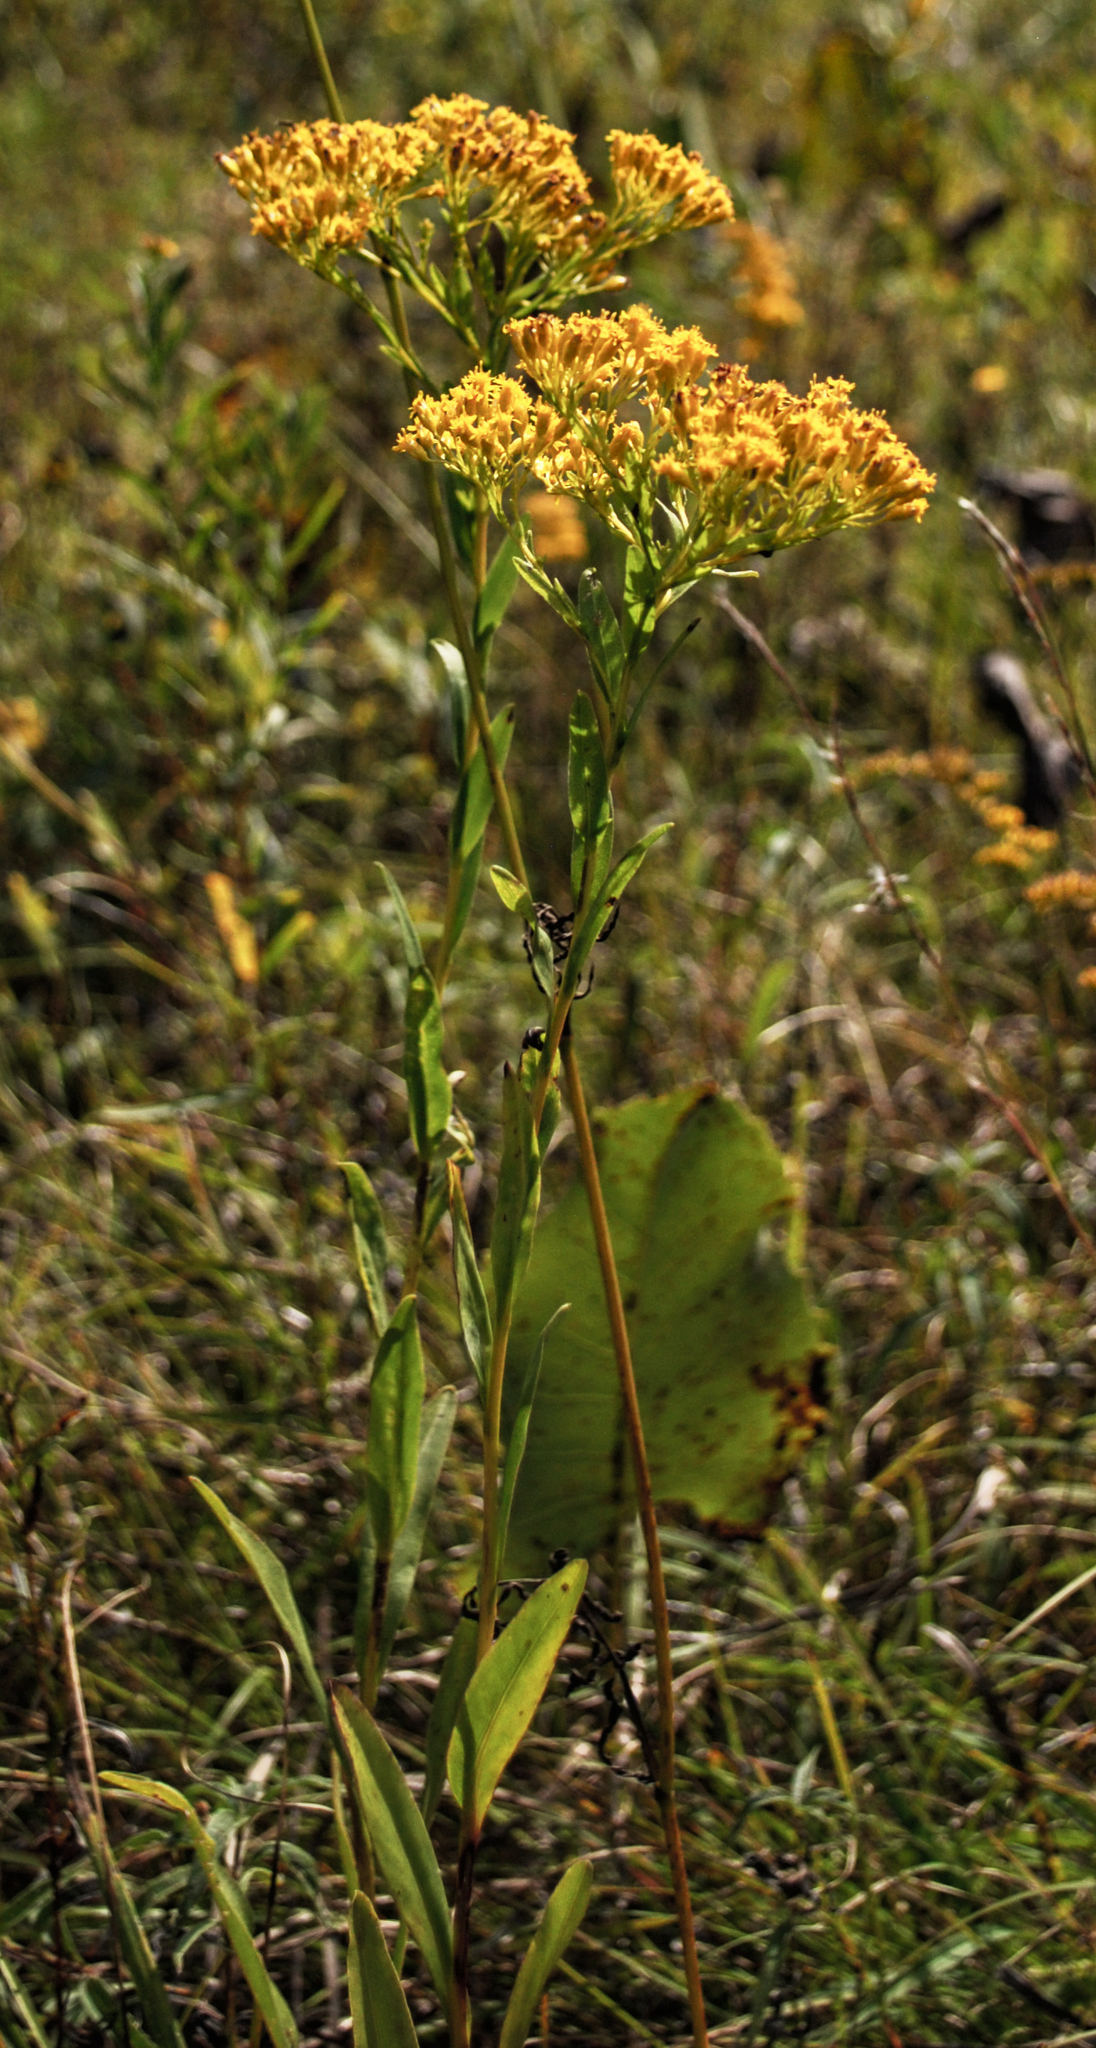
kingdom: Plantae
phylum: Tracheophyta
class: Magnoliopsida
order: Asterales
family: Asteraceae
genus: Solidago
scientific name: Solidago ohioensis
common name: Ohio goldenrod
